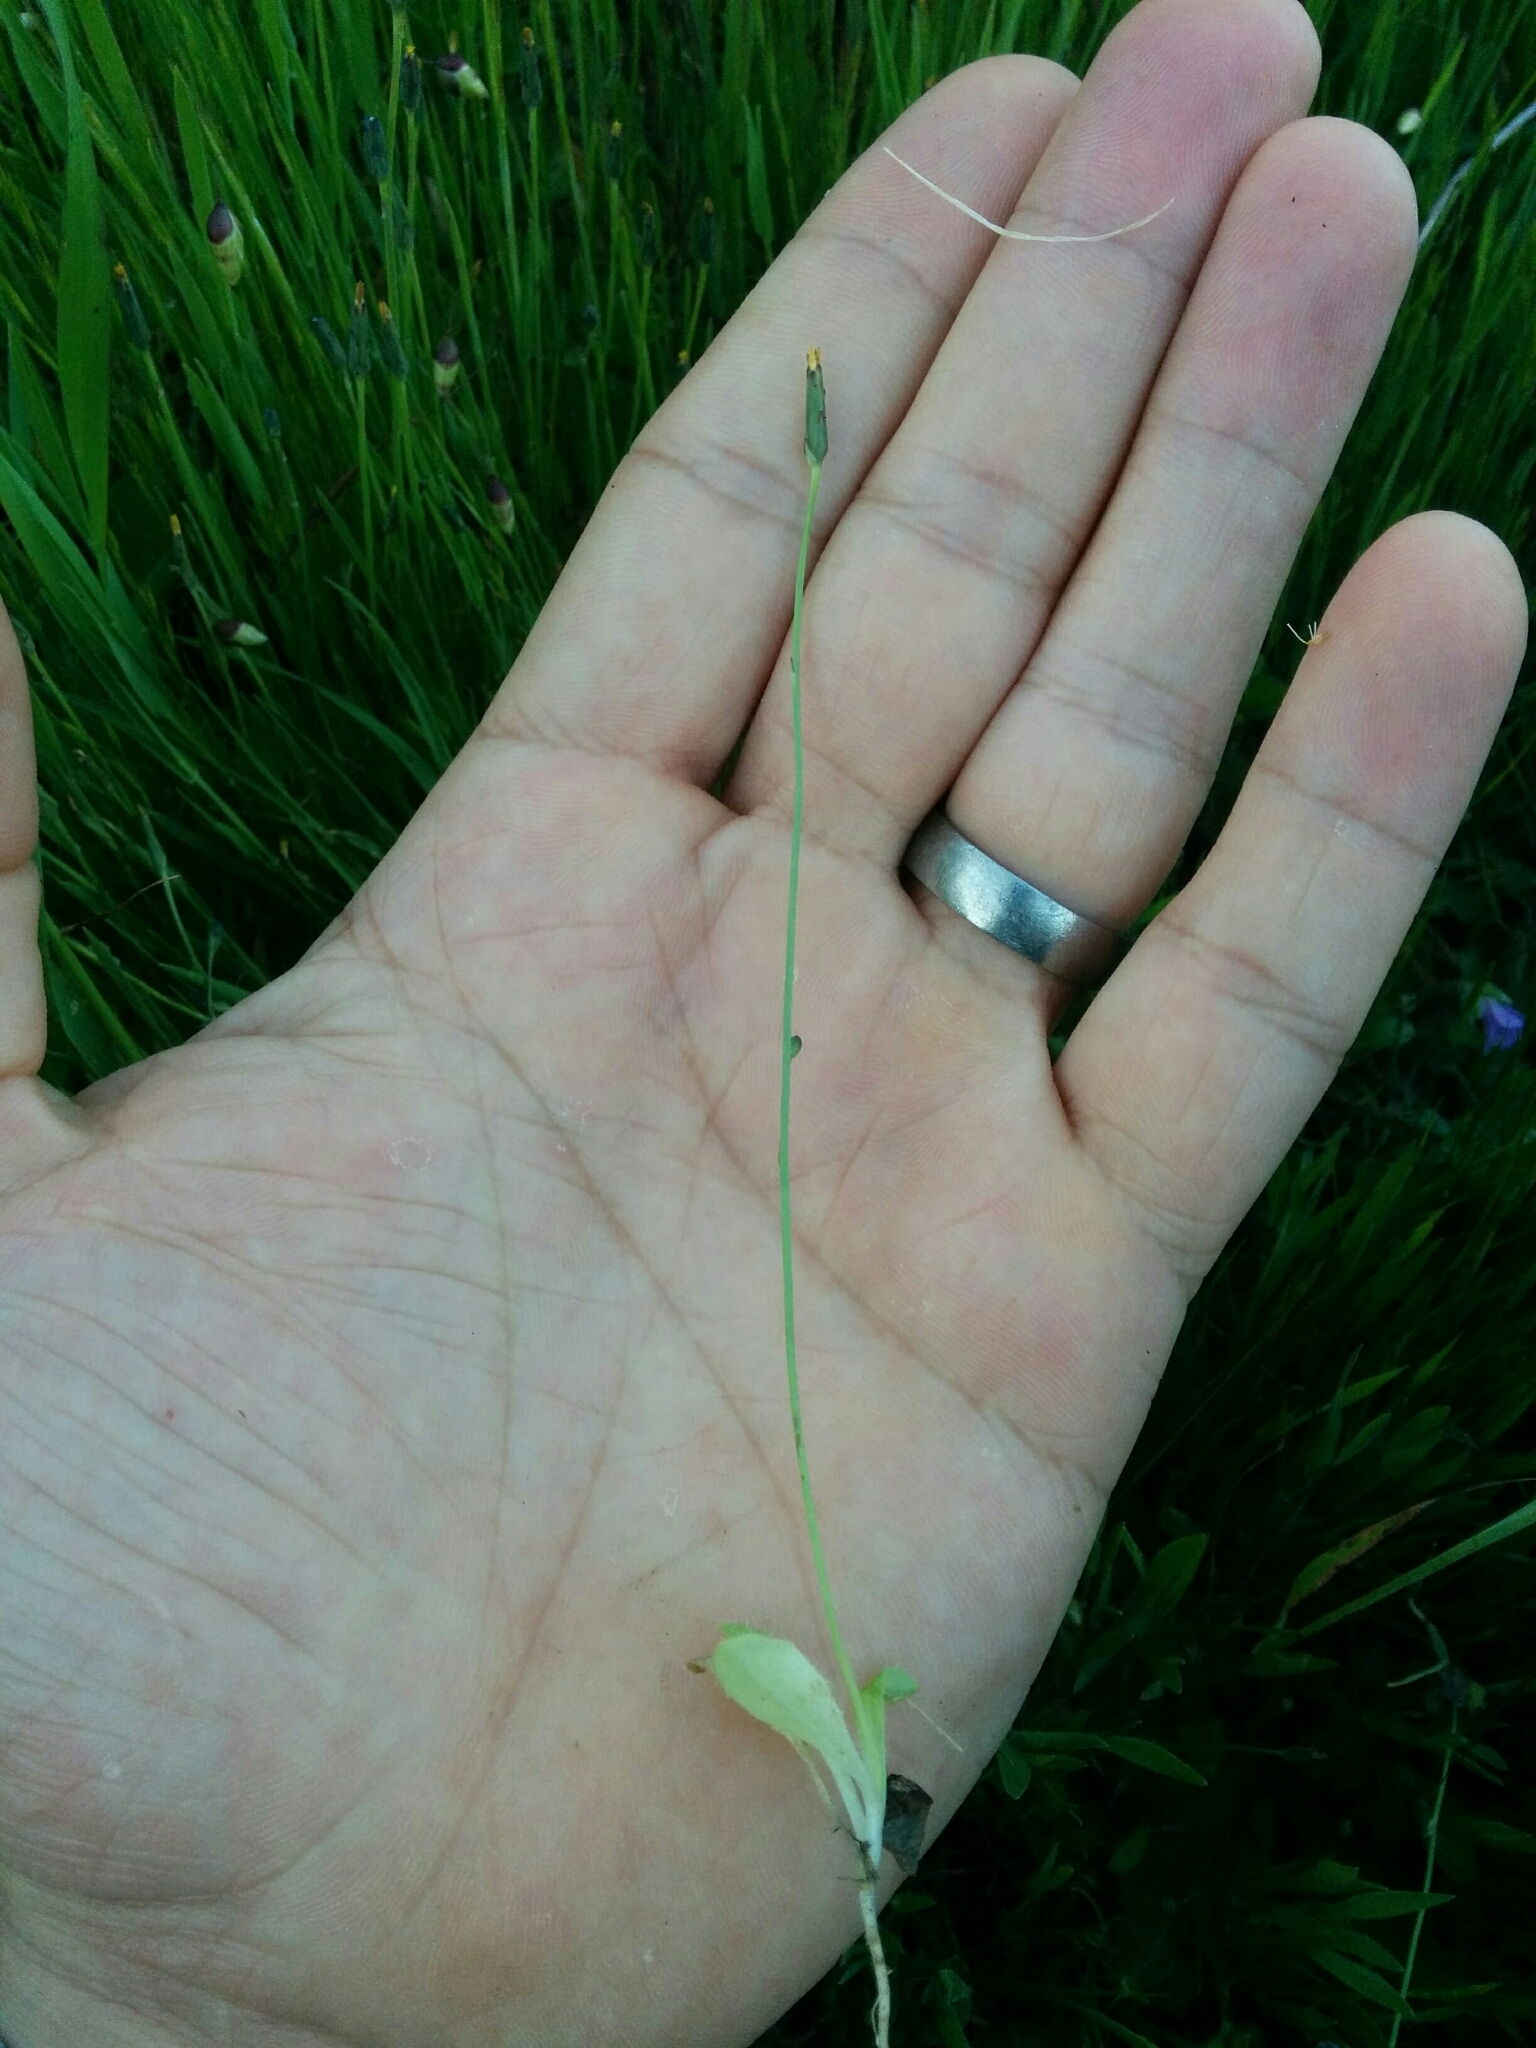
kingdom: Plantae
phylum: Tracheophyta
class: Magnoliopsida
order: Asterales
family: Asteraceae
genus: Hypochaeris
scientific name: Hypochaeris glabra
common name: Smooth catsear
